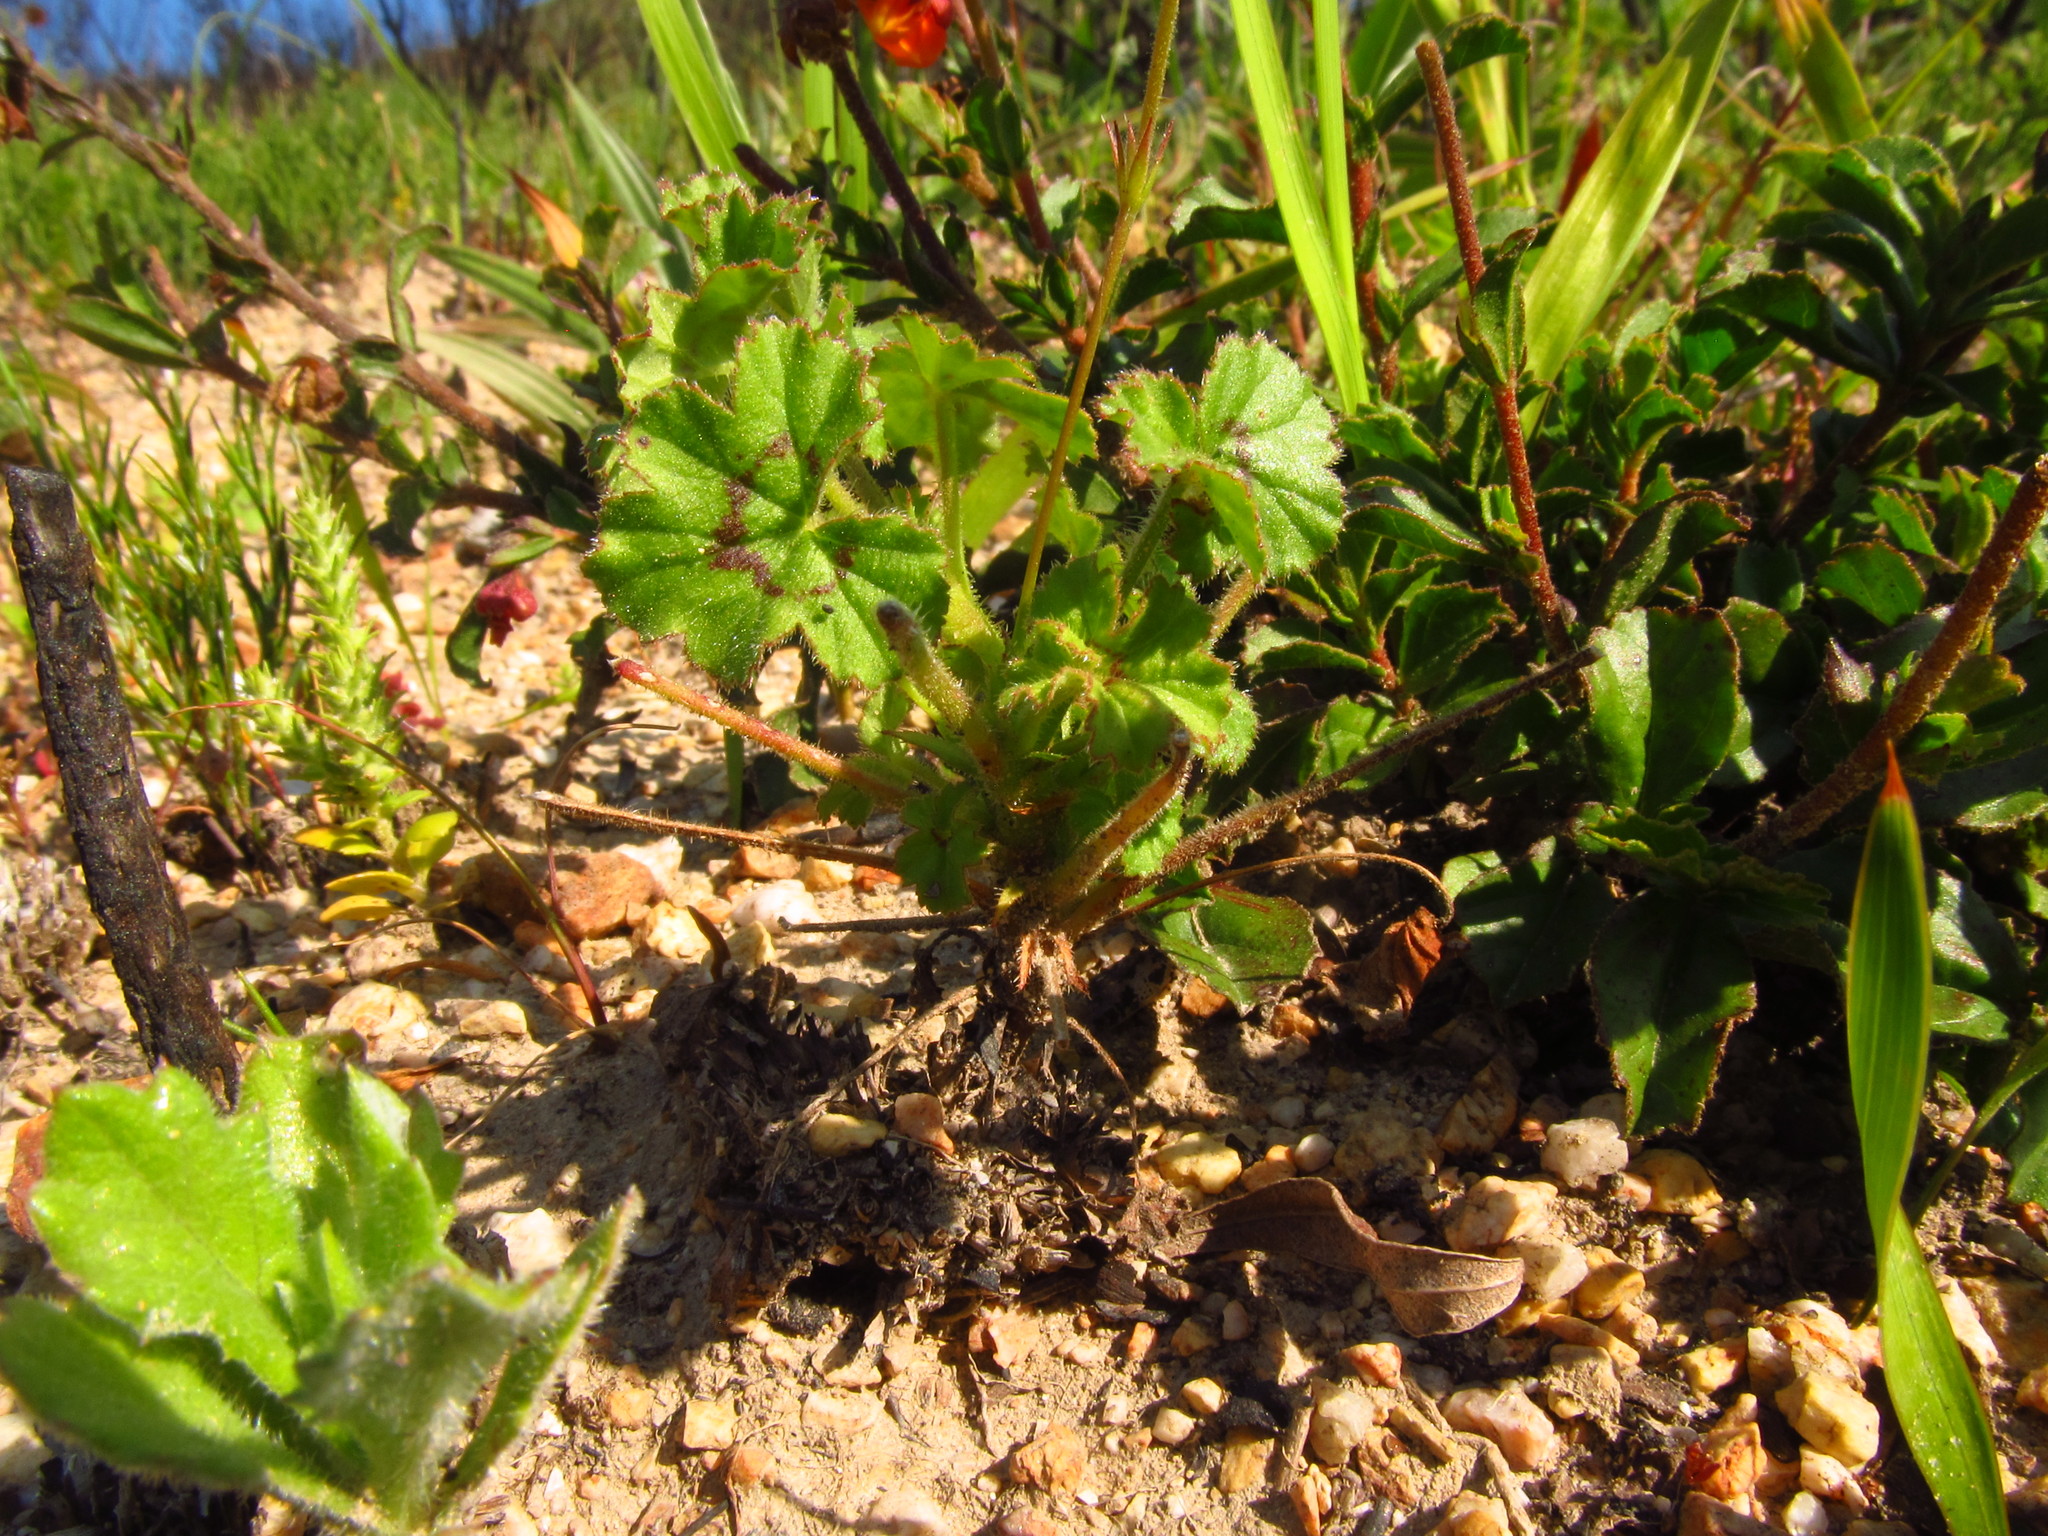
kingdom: Plantae
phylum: Tracheophyta
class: Magnoliopsida
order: Geraniales
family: Geraniaceae
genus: Pelargonium
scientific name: Pelargonium elongatum
